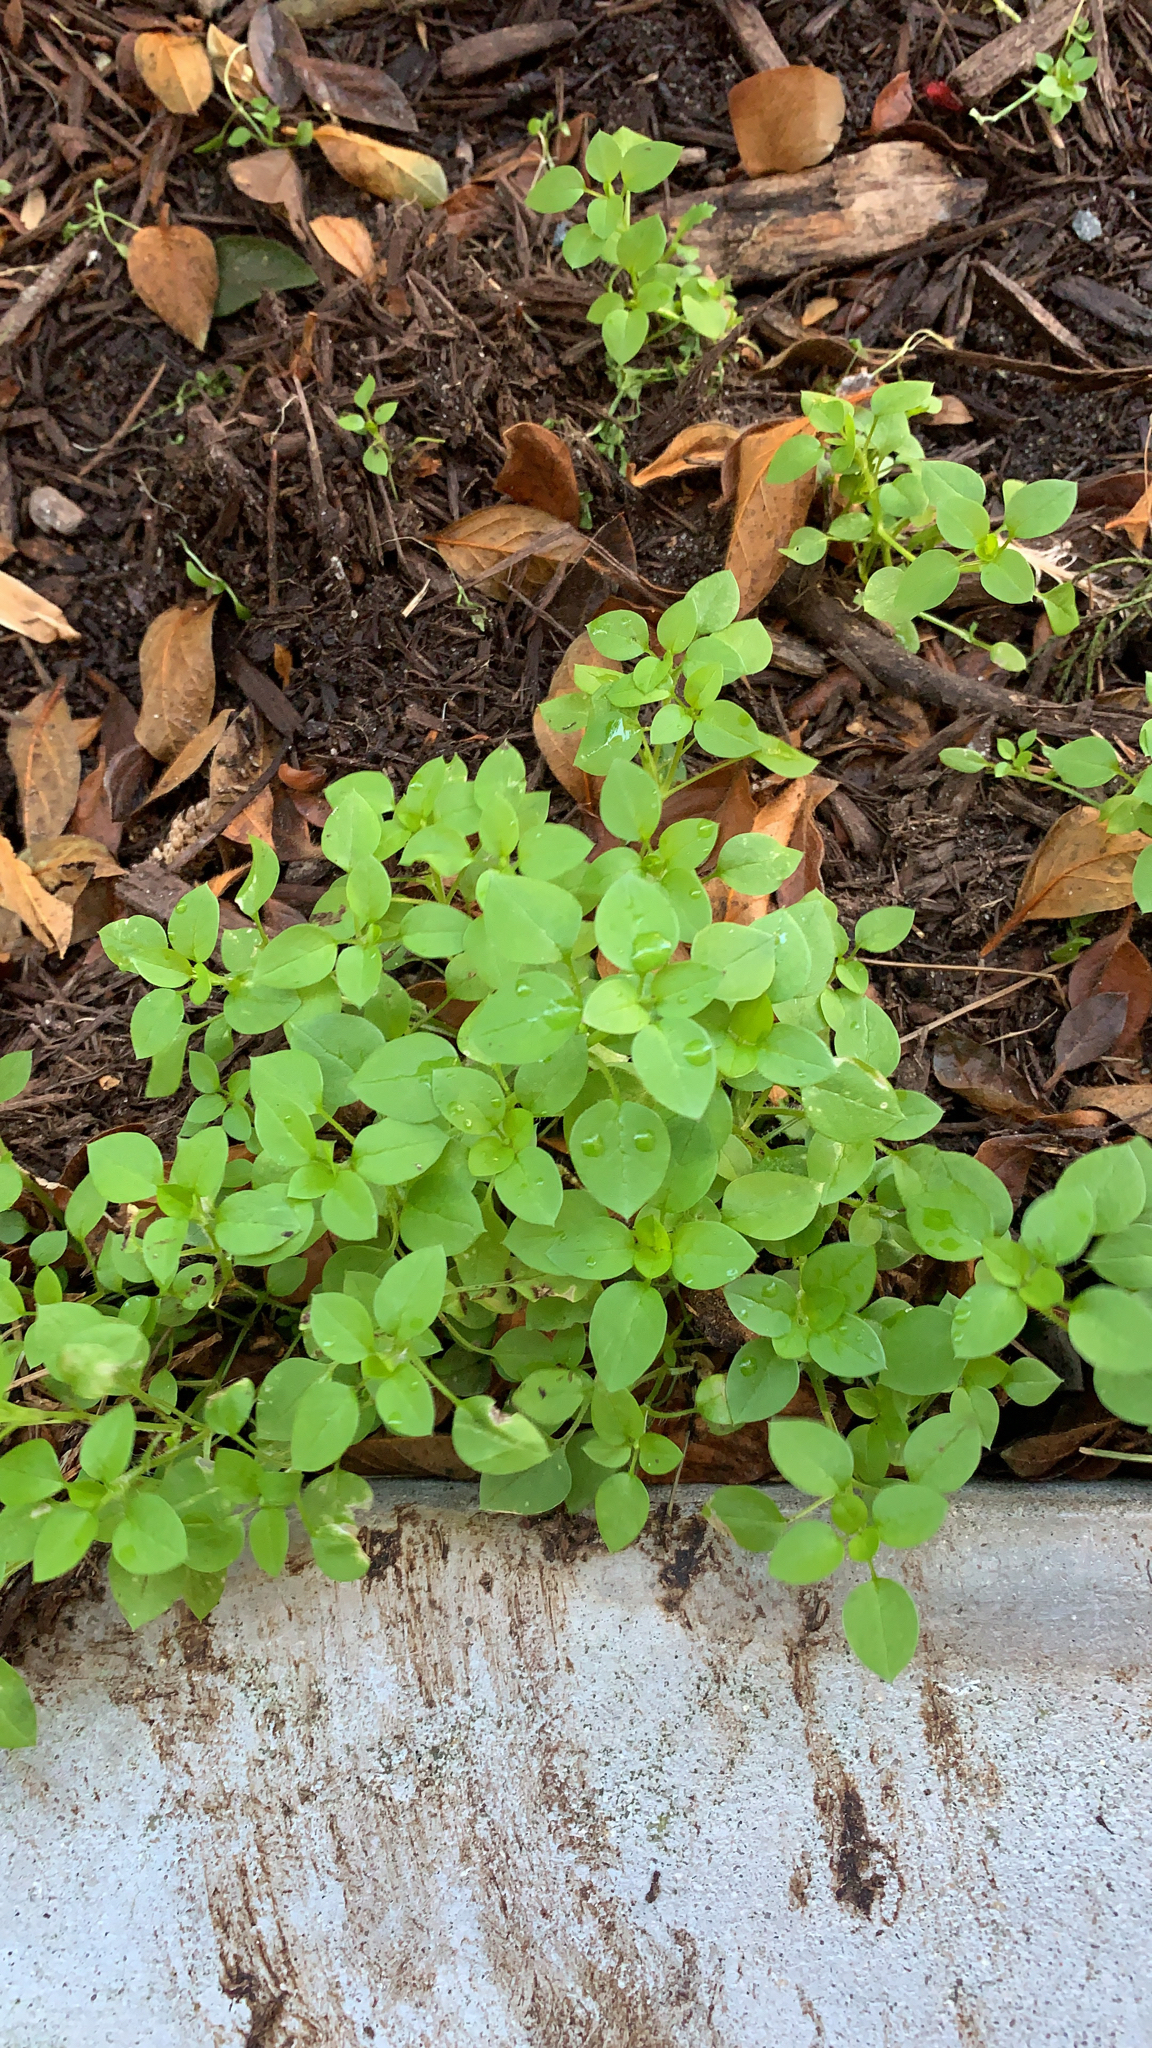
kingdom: Plantae
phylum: Tracheophyta
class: Magnoliopsida
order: Caryophyllales
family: Caryophyllaceae
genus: Stellaria
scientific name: Stellaria media
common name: Common chickweed
